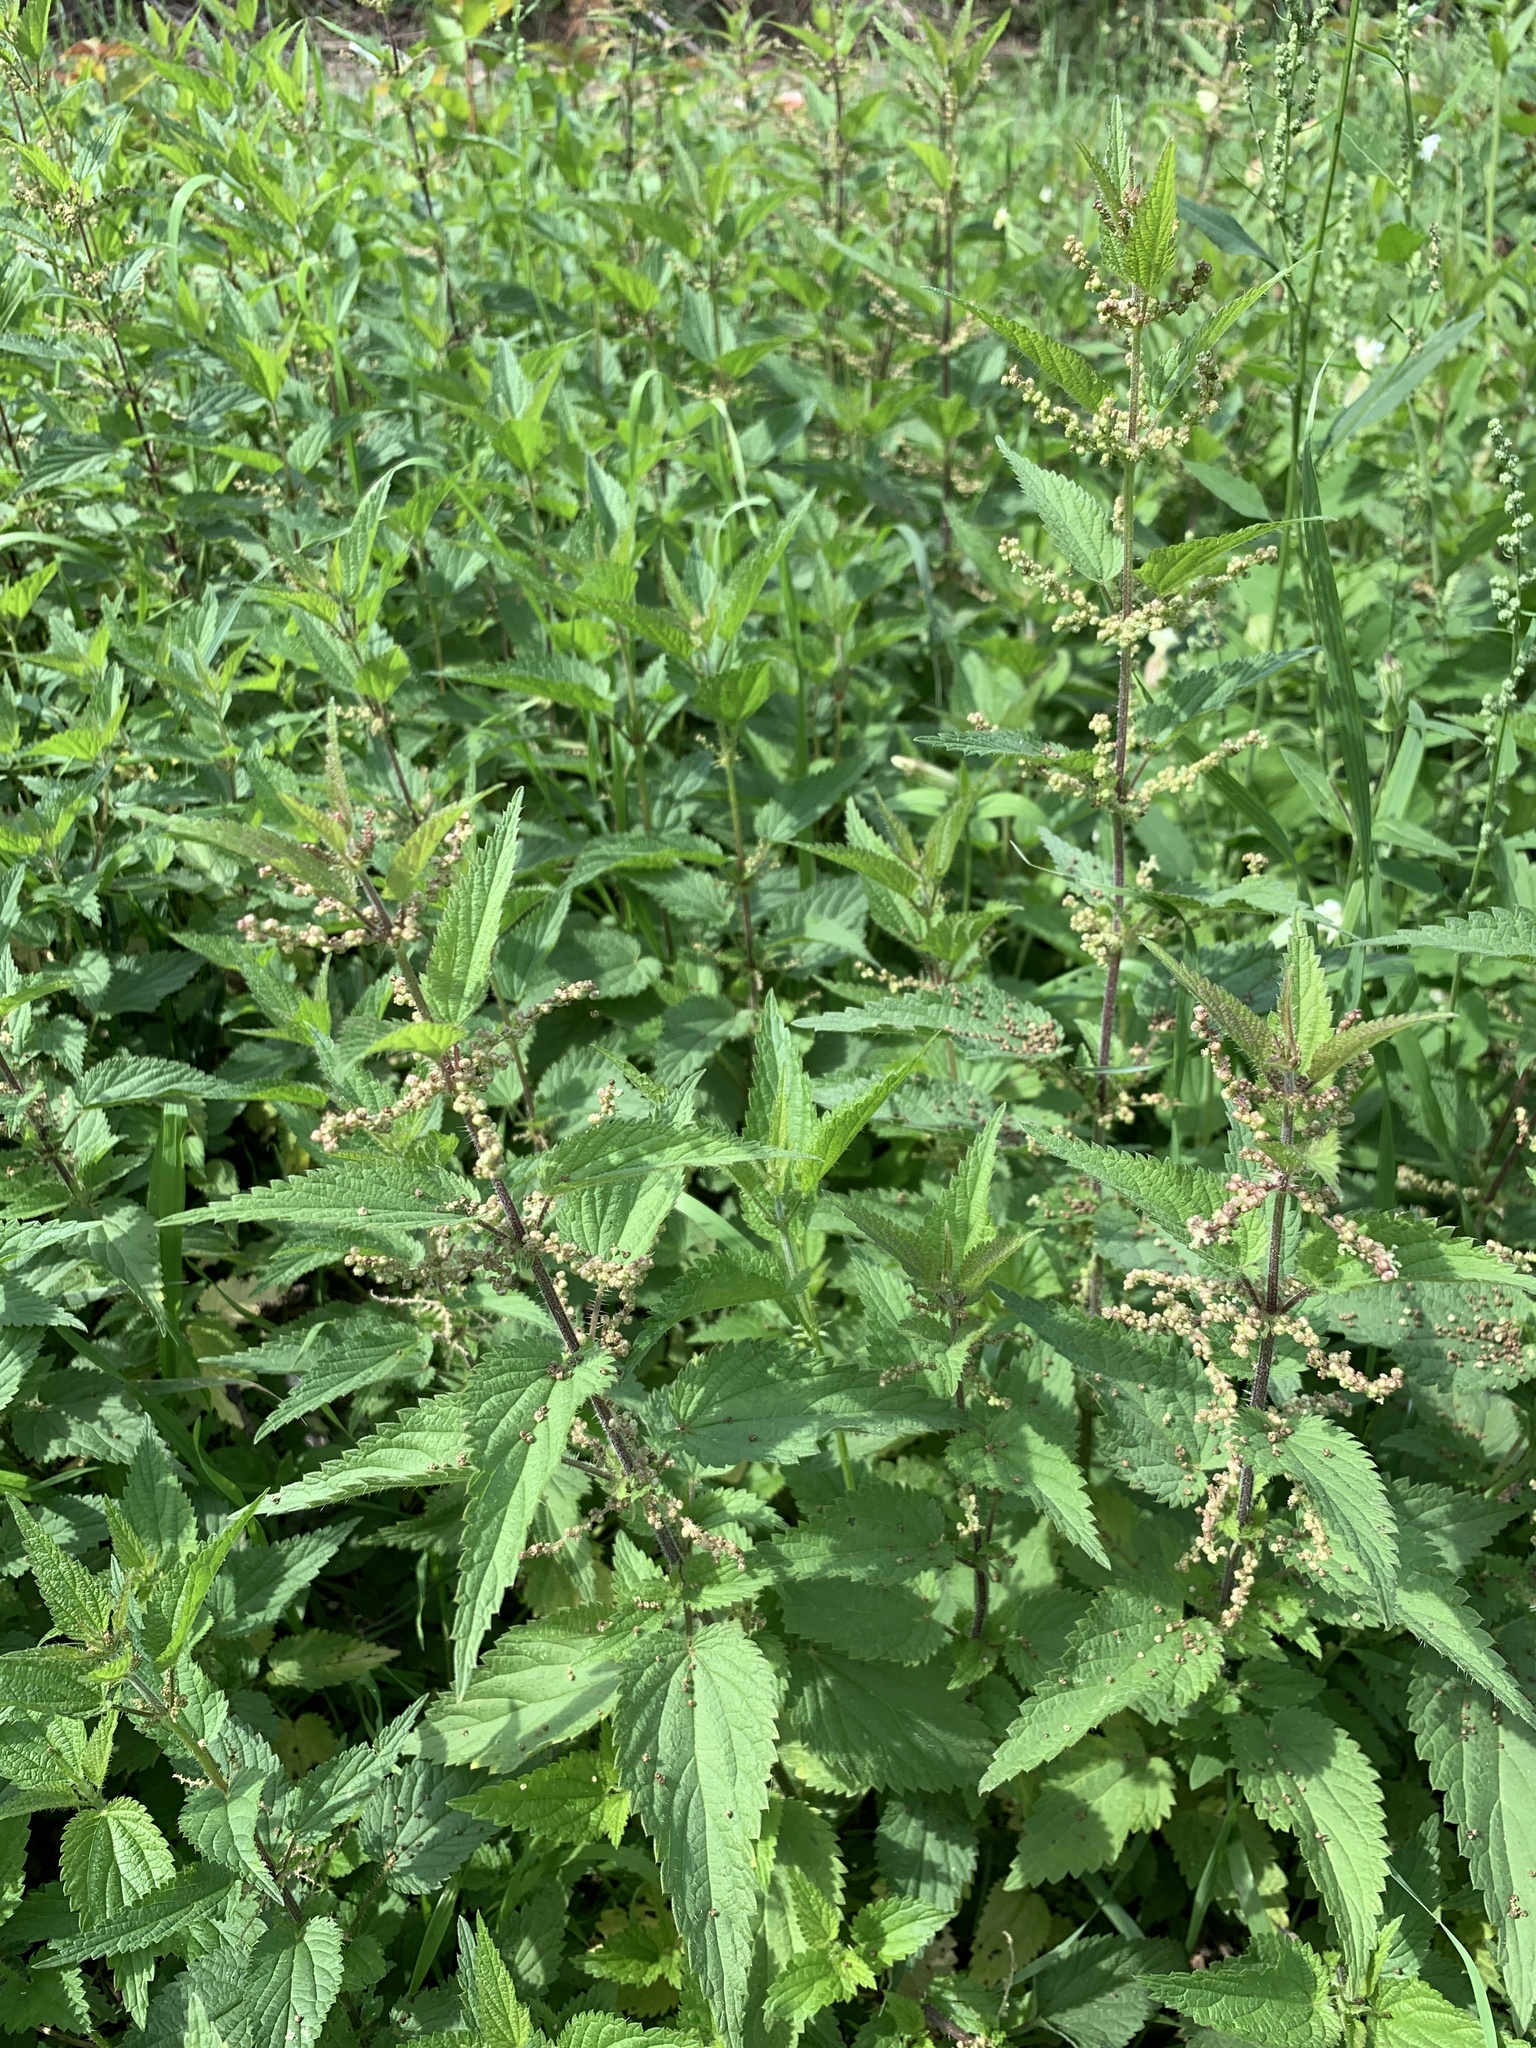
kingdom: Plantae
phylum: Tracheophyta
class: Magnoliopsida
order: Rosales
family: Urticaceae
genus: Urtica
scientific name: Urtica dioica
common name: Common nettle
